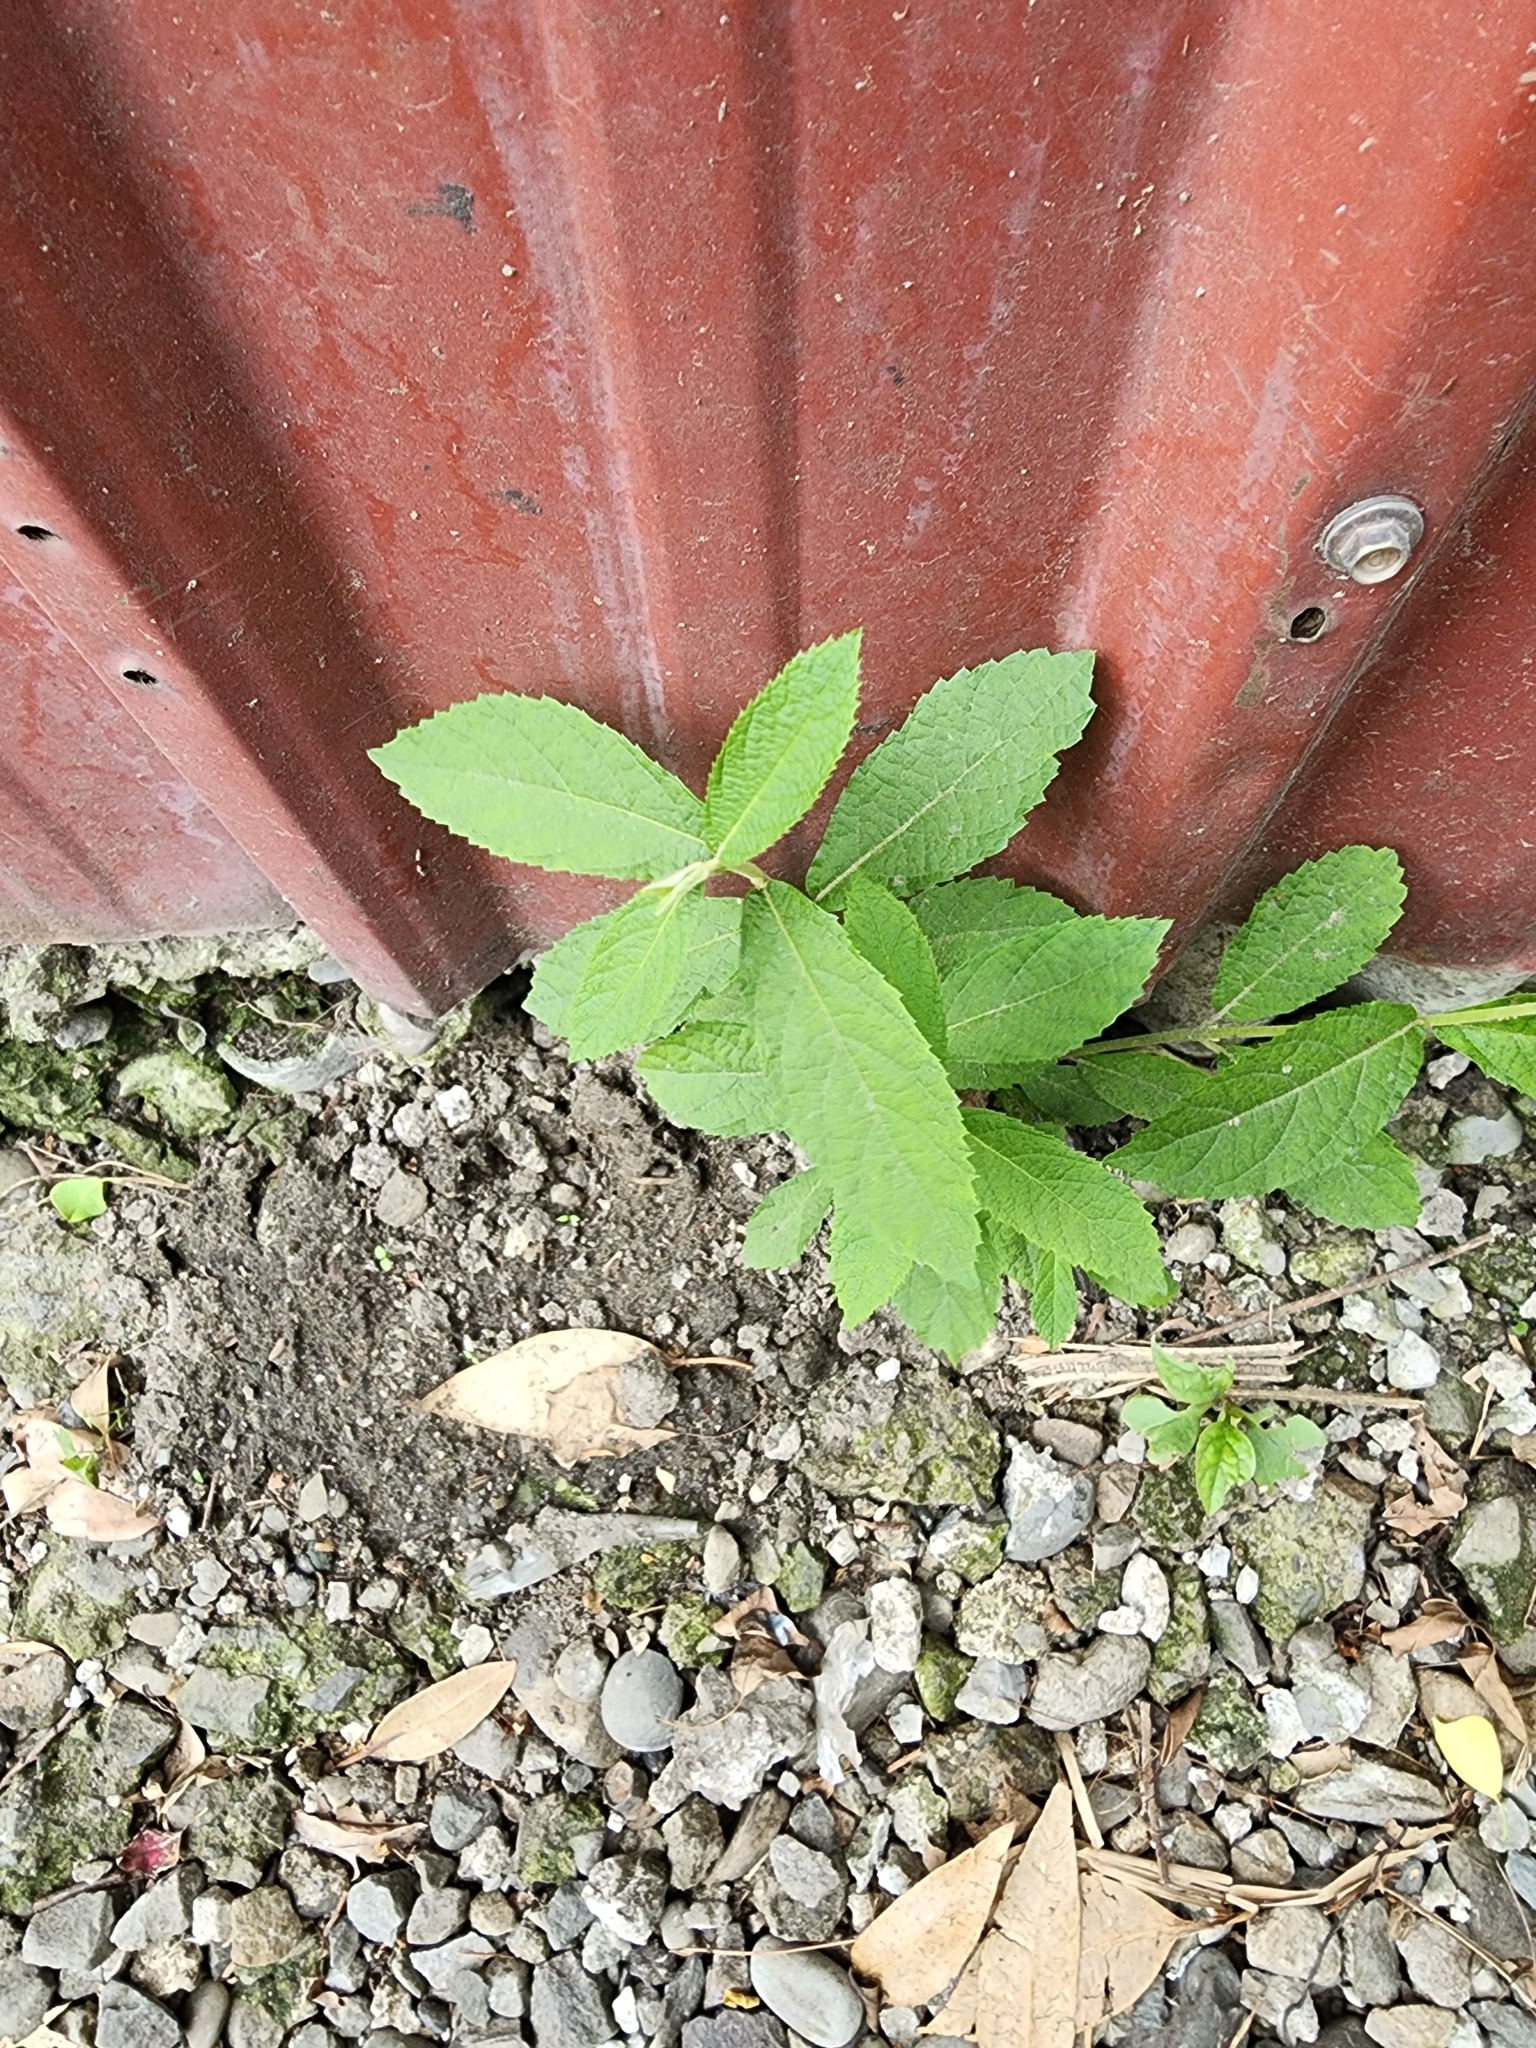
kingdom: Plantae
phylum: Tracheophyta
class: Magnoliopsida
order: Lamiales
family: Lamiaceae
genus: Callicarpa
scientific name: Callicarpa pedunculata
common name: Velvetleaf
